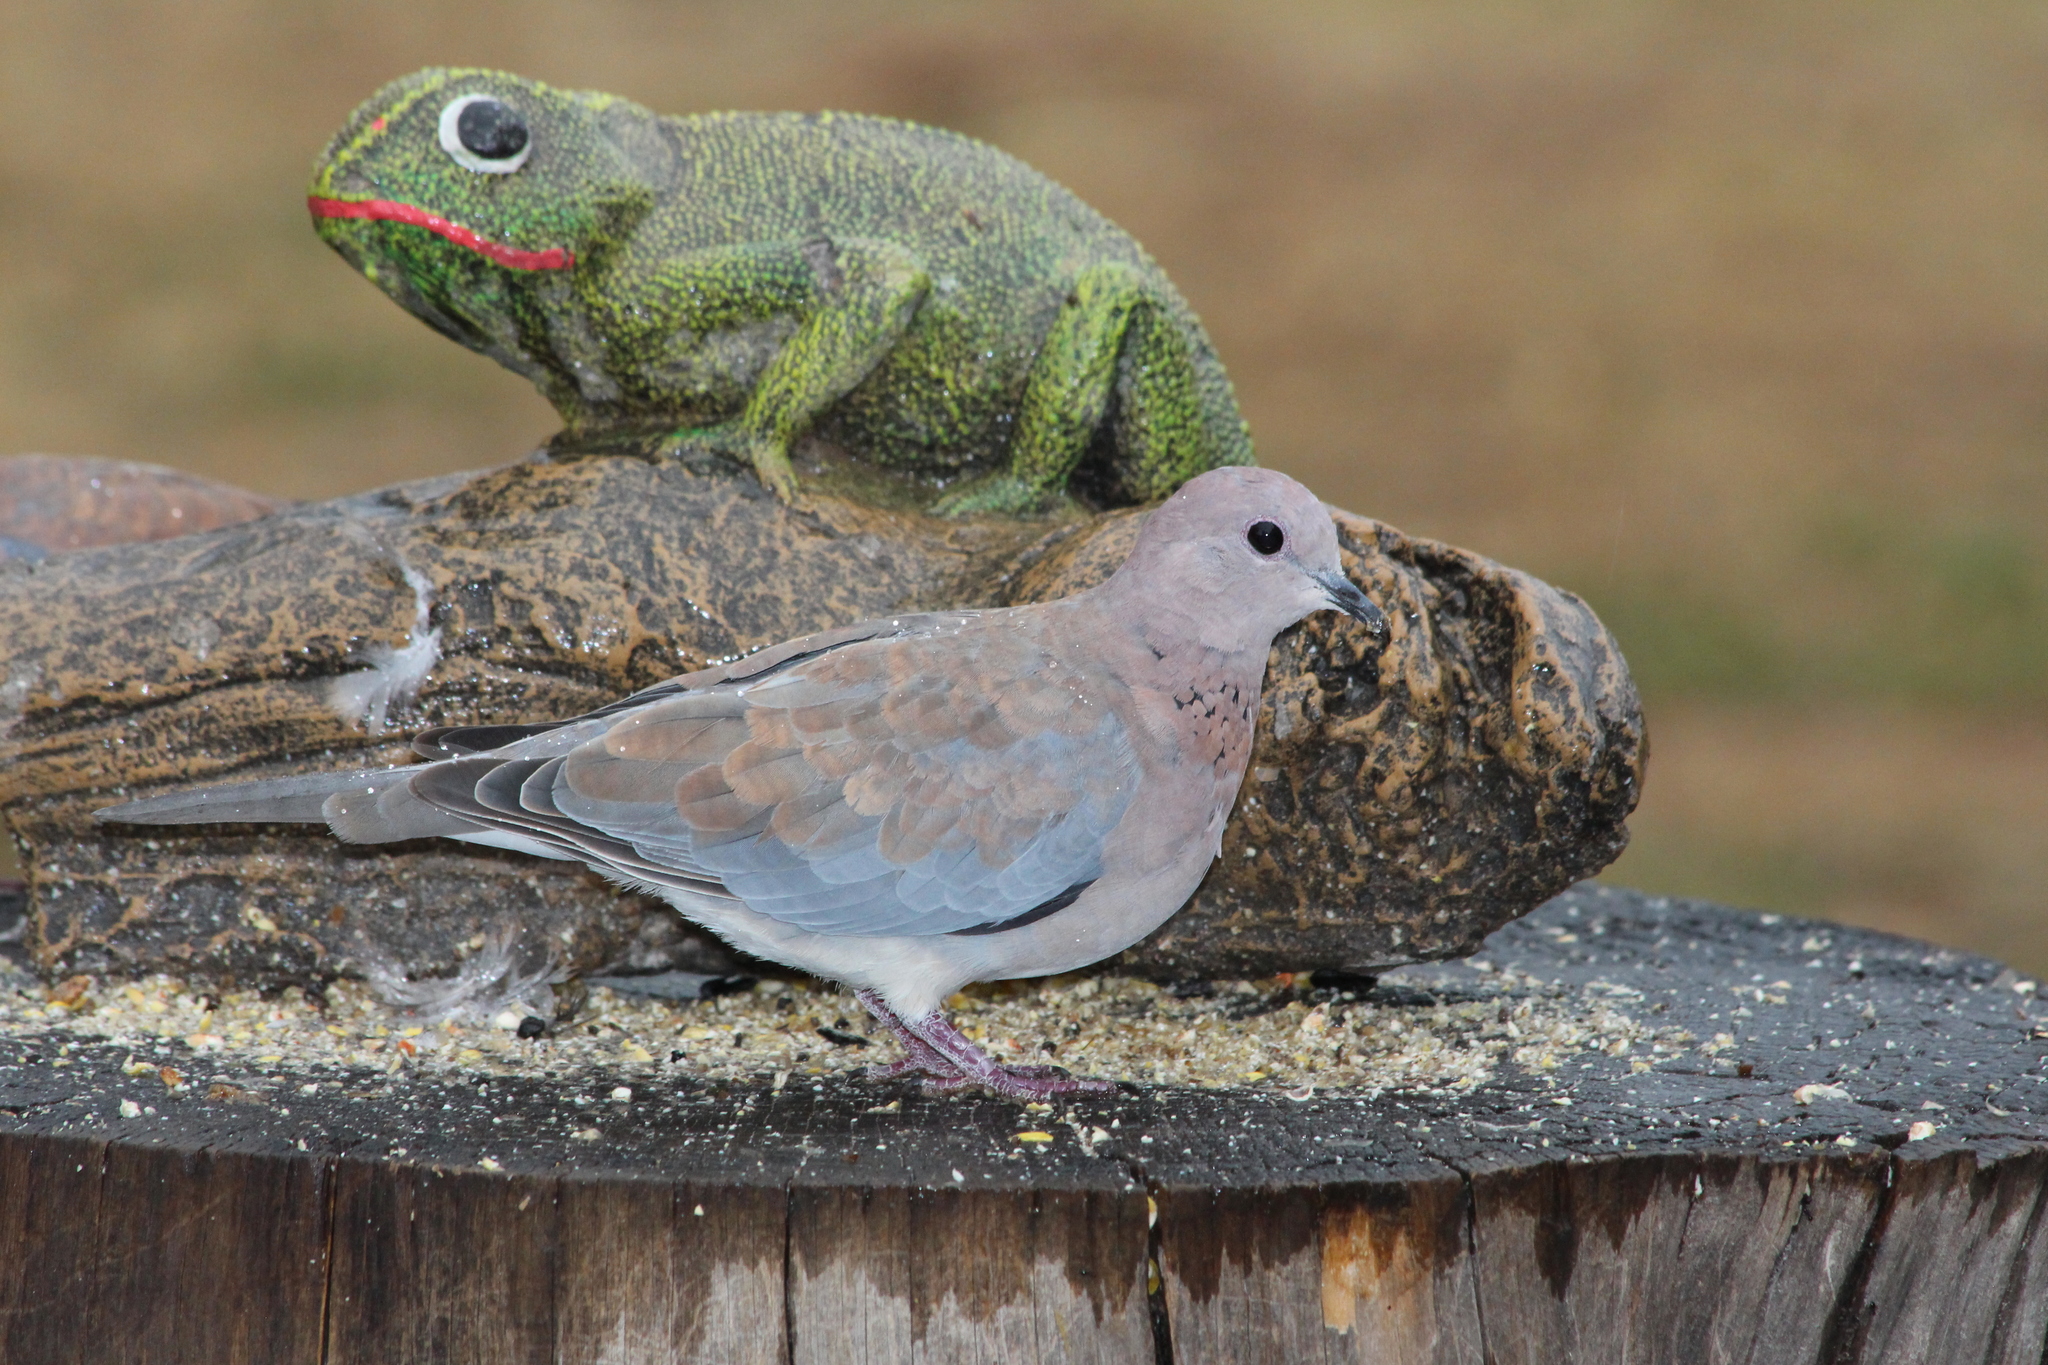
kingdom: Animalia
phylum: Chordata
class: Aves
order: Columbiformes
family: Columbidae
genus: Spilopelia
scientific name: Spilopelia senegalensis
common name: Laughing dove
